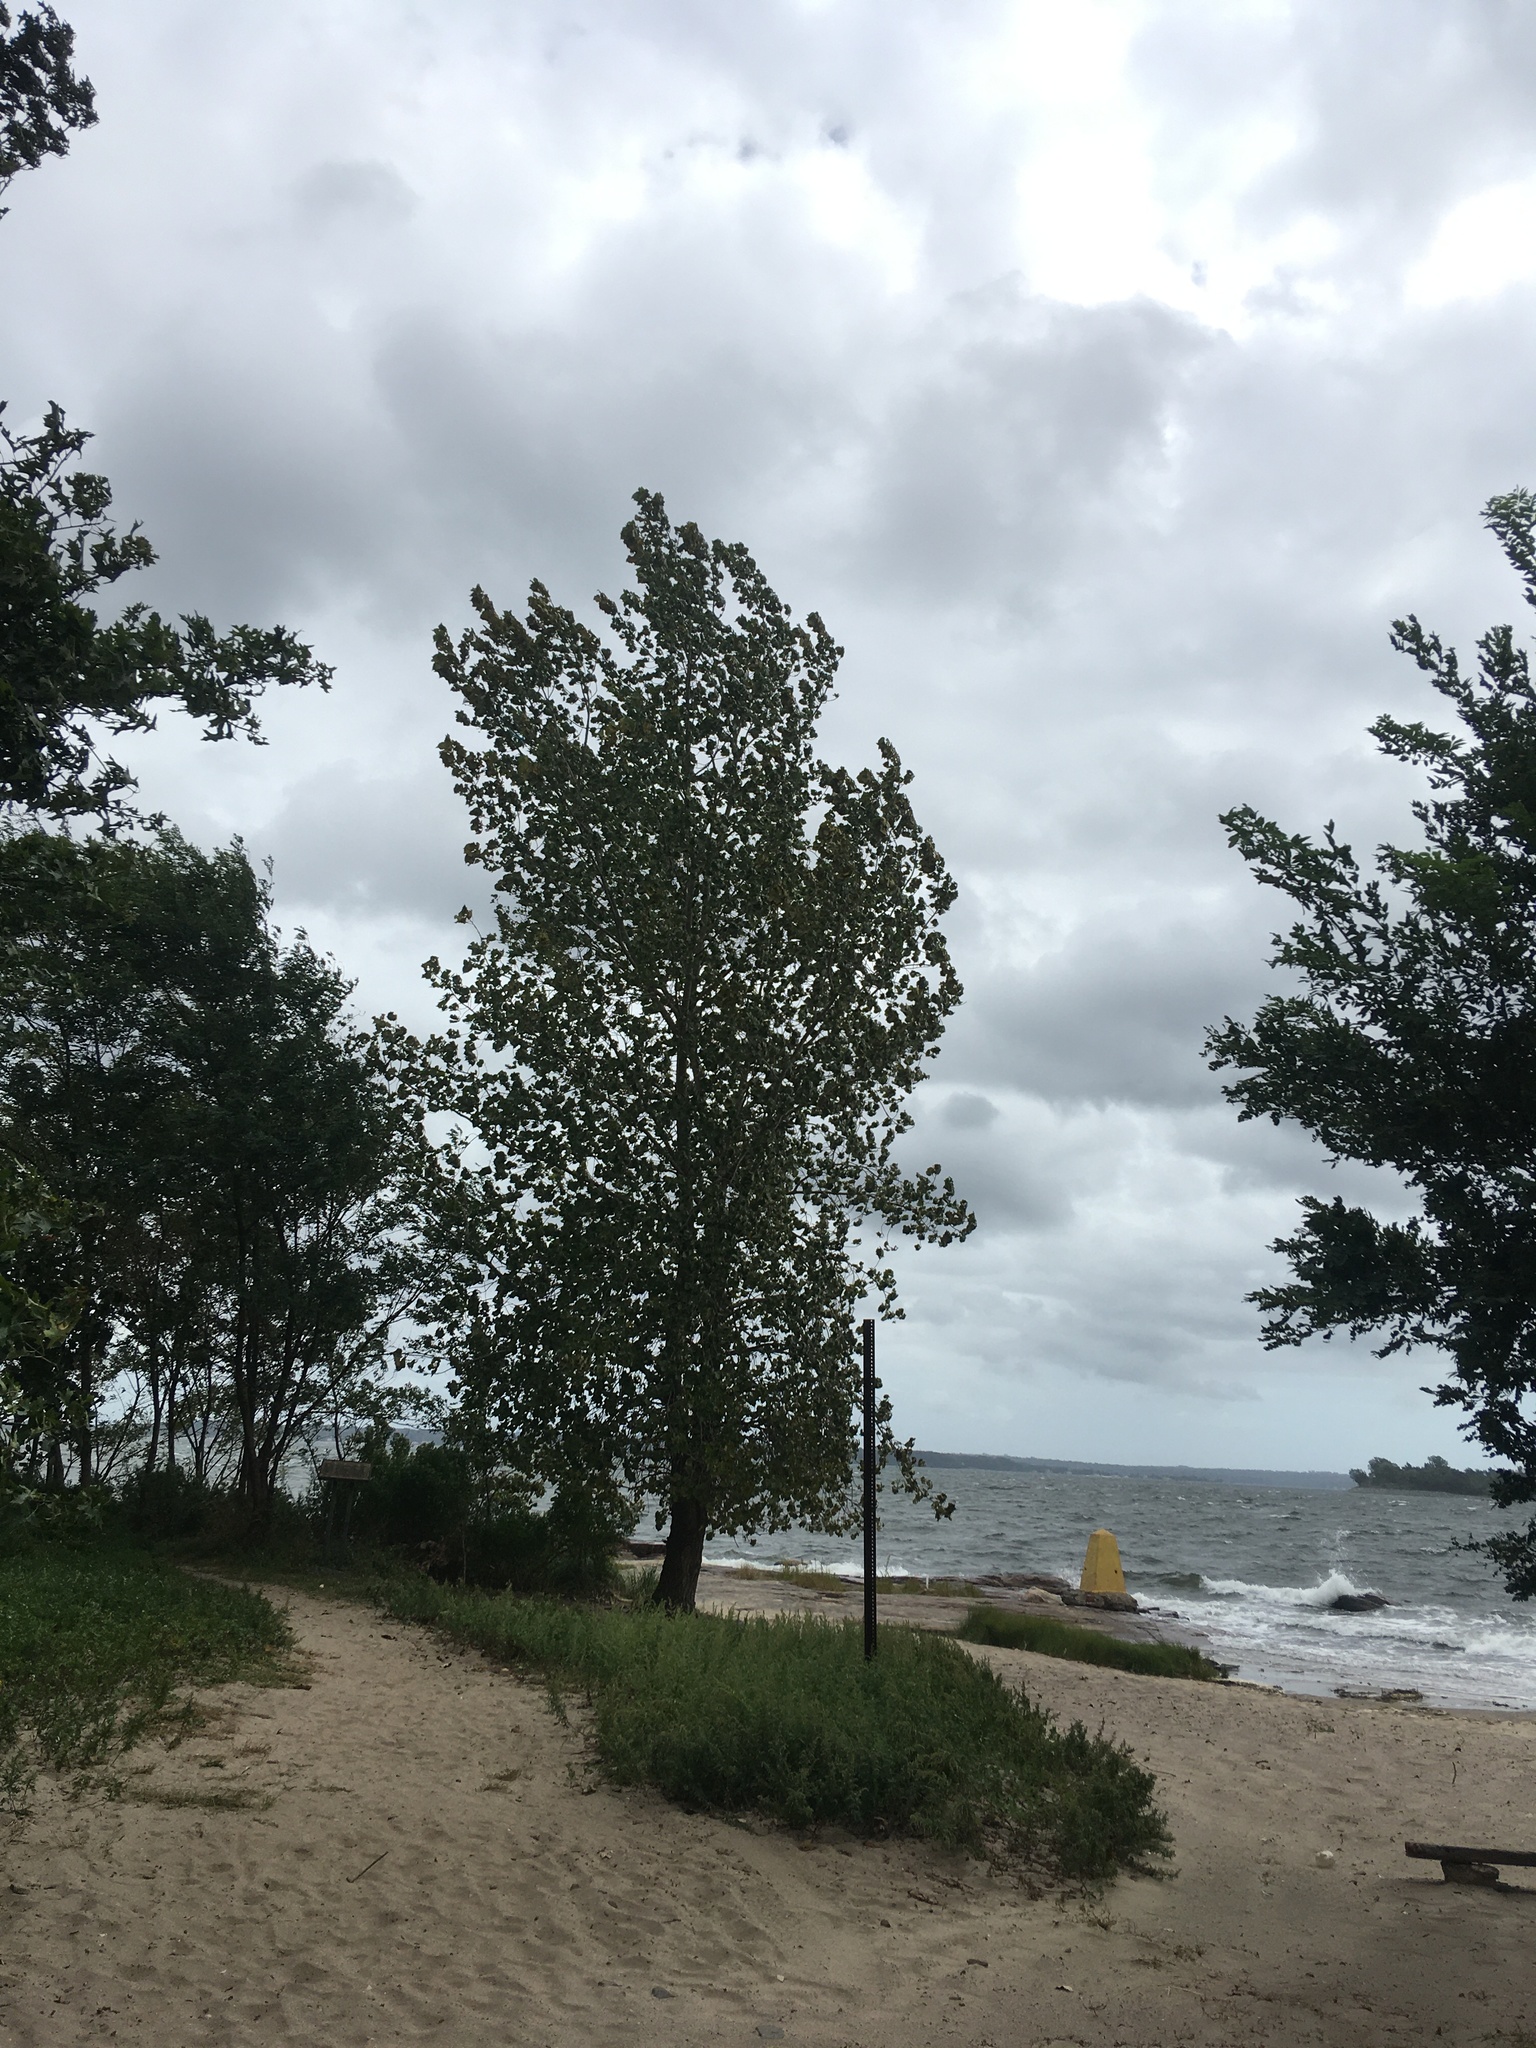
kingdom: Plantae
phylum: Tracheophyta
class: Magnoliopsida
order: Malpighiales
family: Salicaceae
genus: Populus
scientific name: Populus deltoides
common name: Eastern cottonwood
